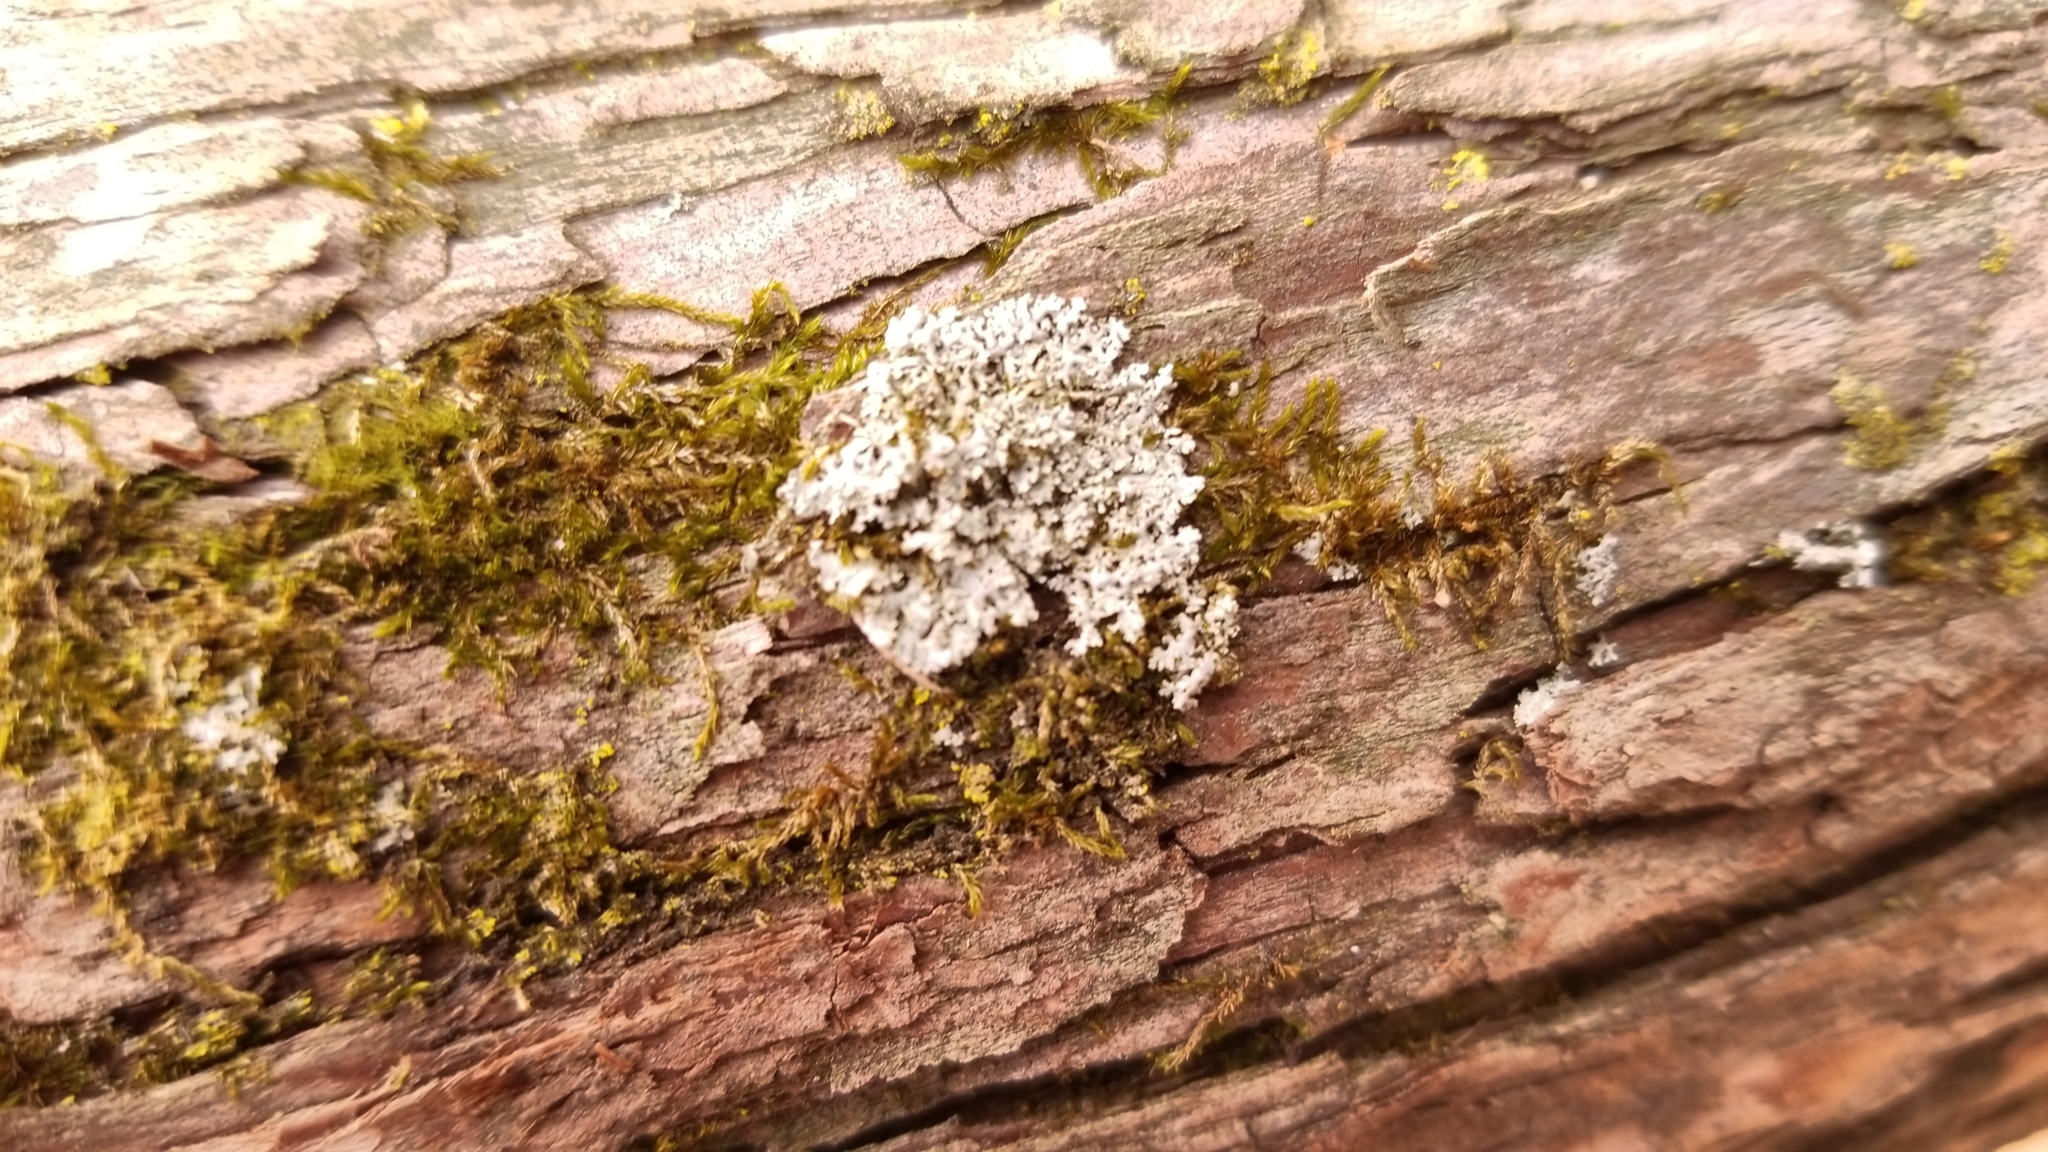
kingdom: Fungi
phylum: Ascomycota
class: Lecanoromycetes
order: Caliciales
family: Physciaceae
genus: Physcia
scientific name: Physcia millegrana
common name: Rosette lichen
